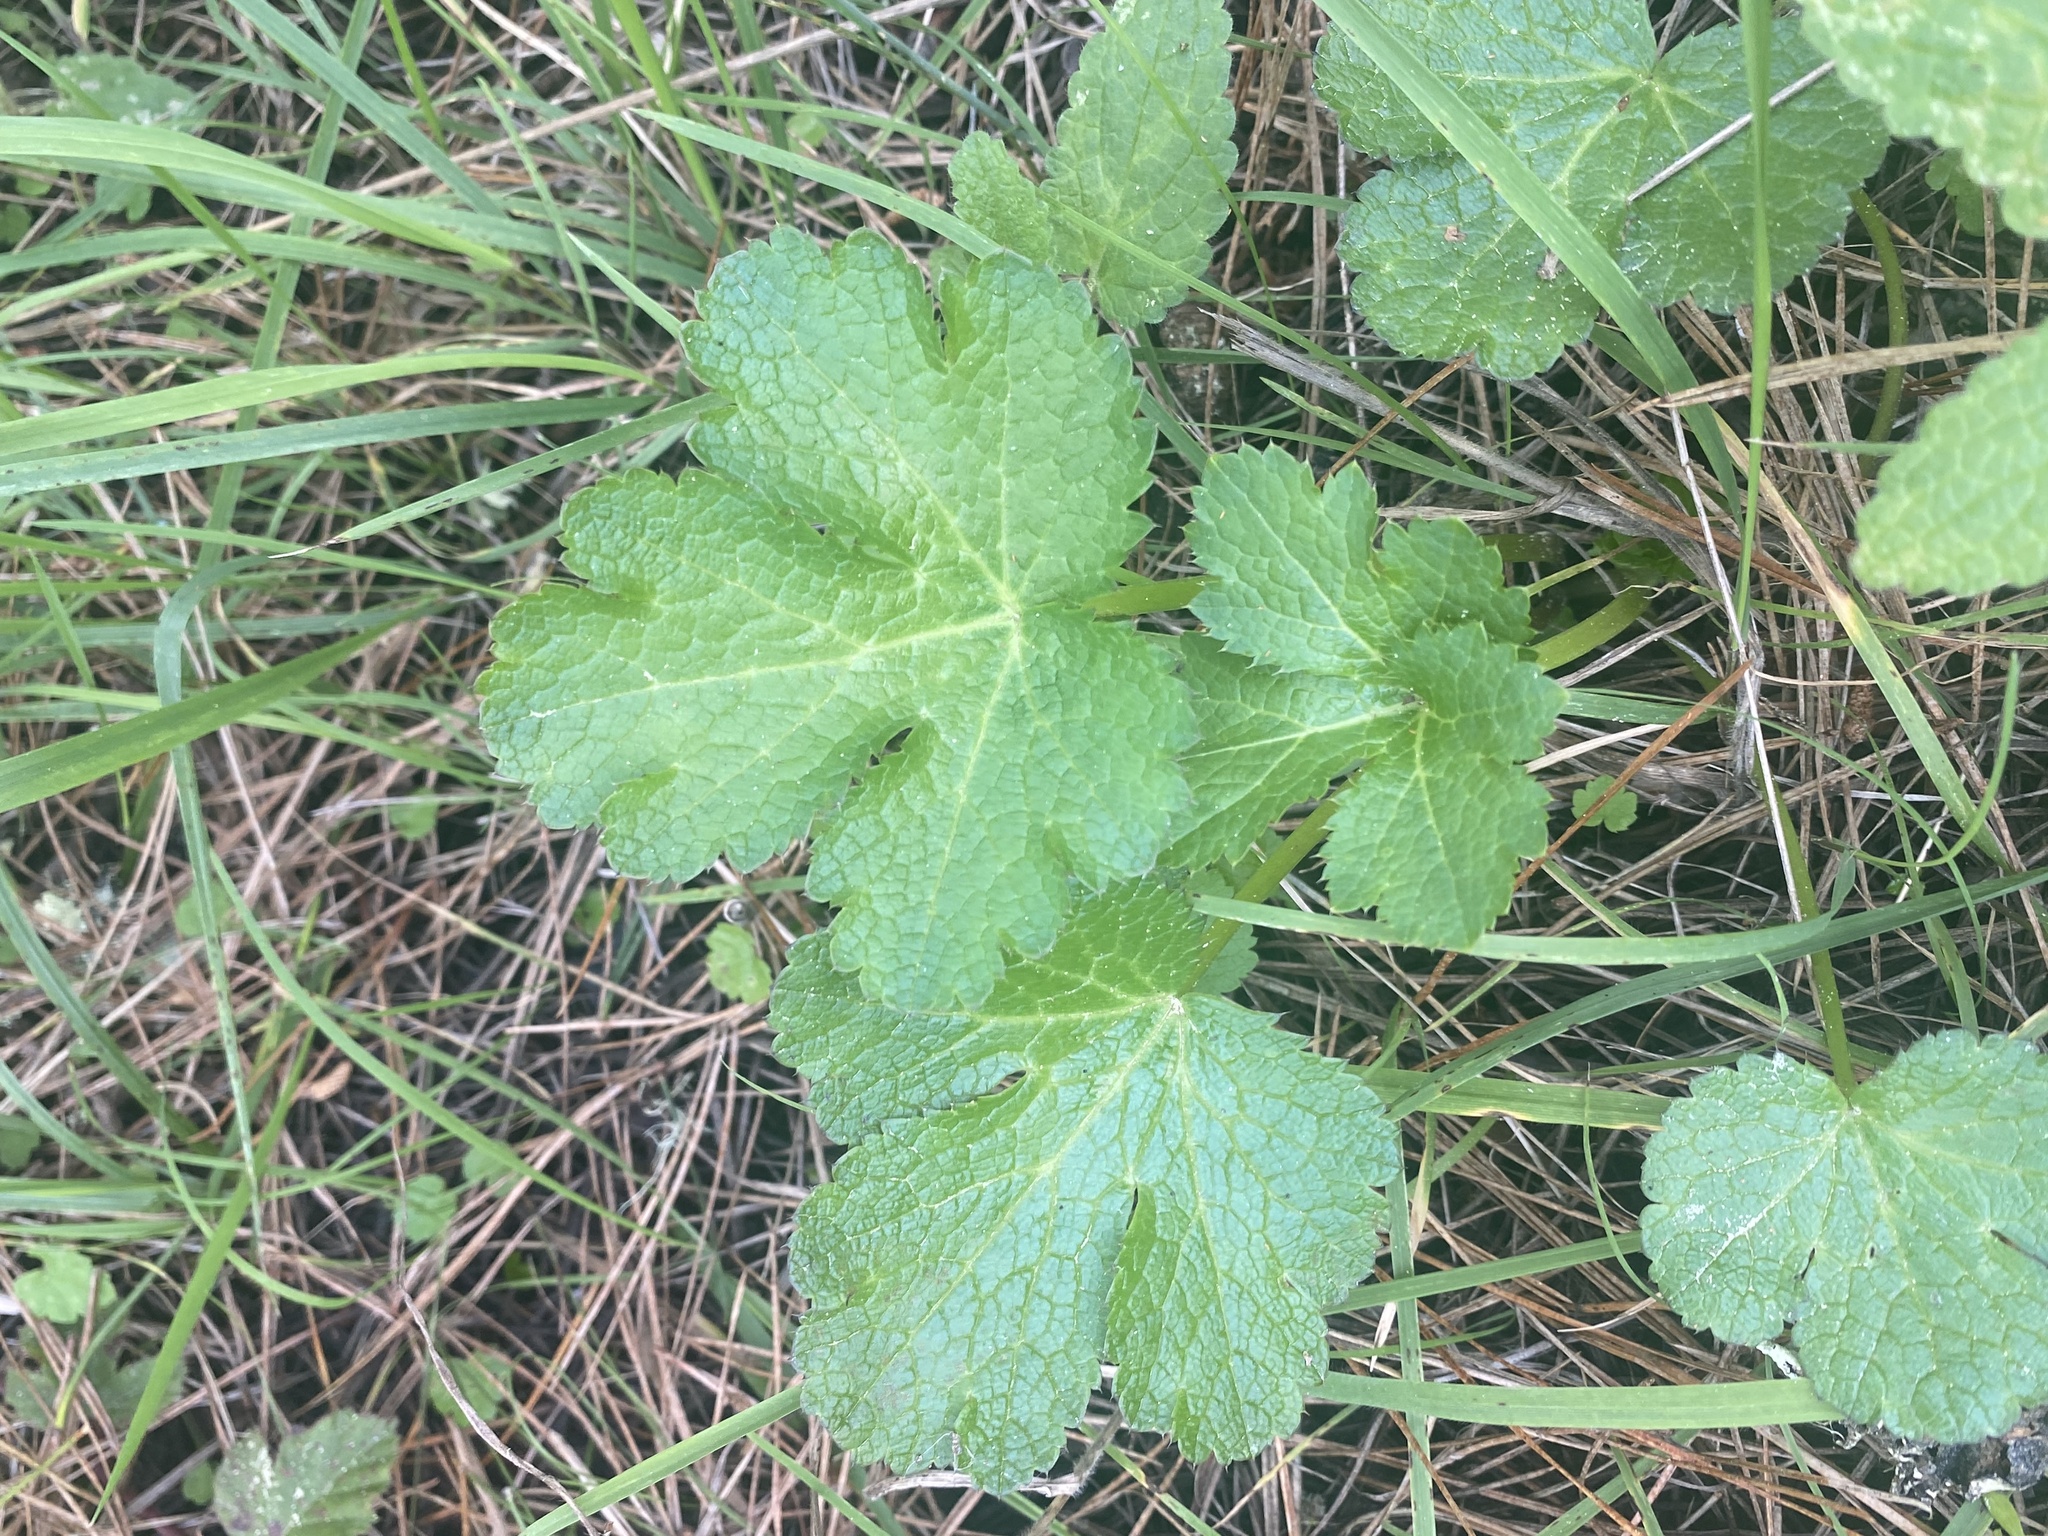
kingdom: Plantae
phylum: Tracheophyta
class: Magnoliopsida
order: Apiales
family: Apiaceae
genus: Sanicula
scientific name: Sanicula crassicaulis
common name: Western snakeroot
